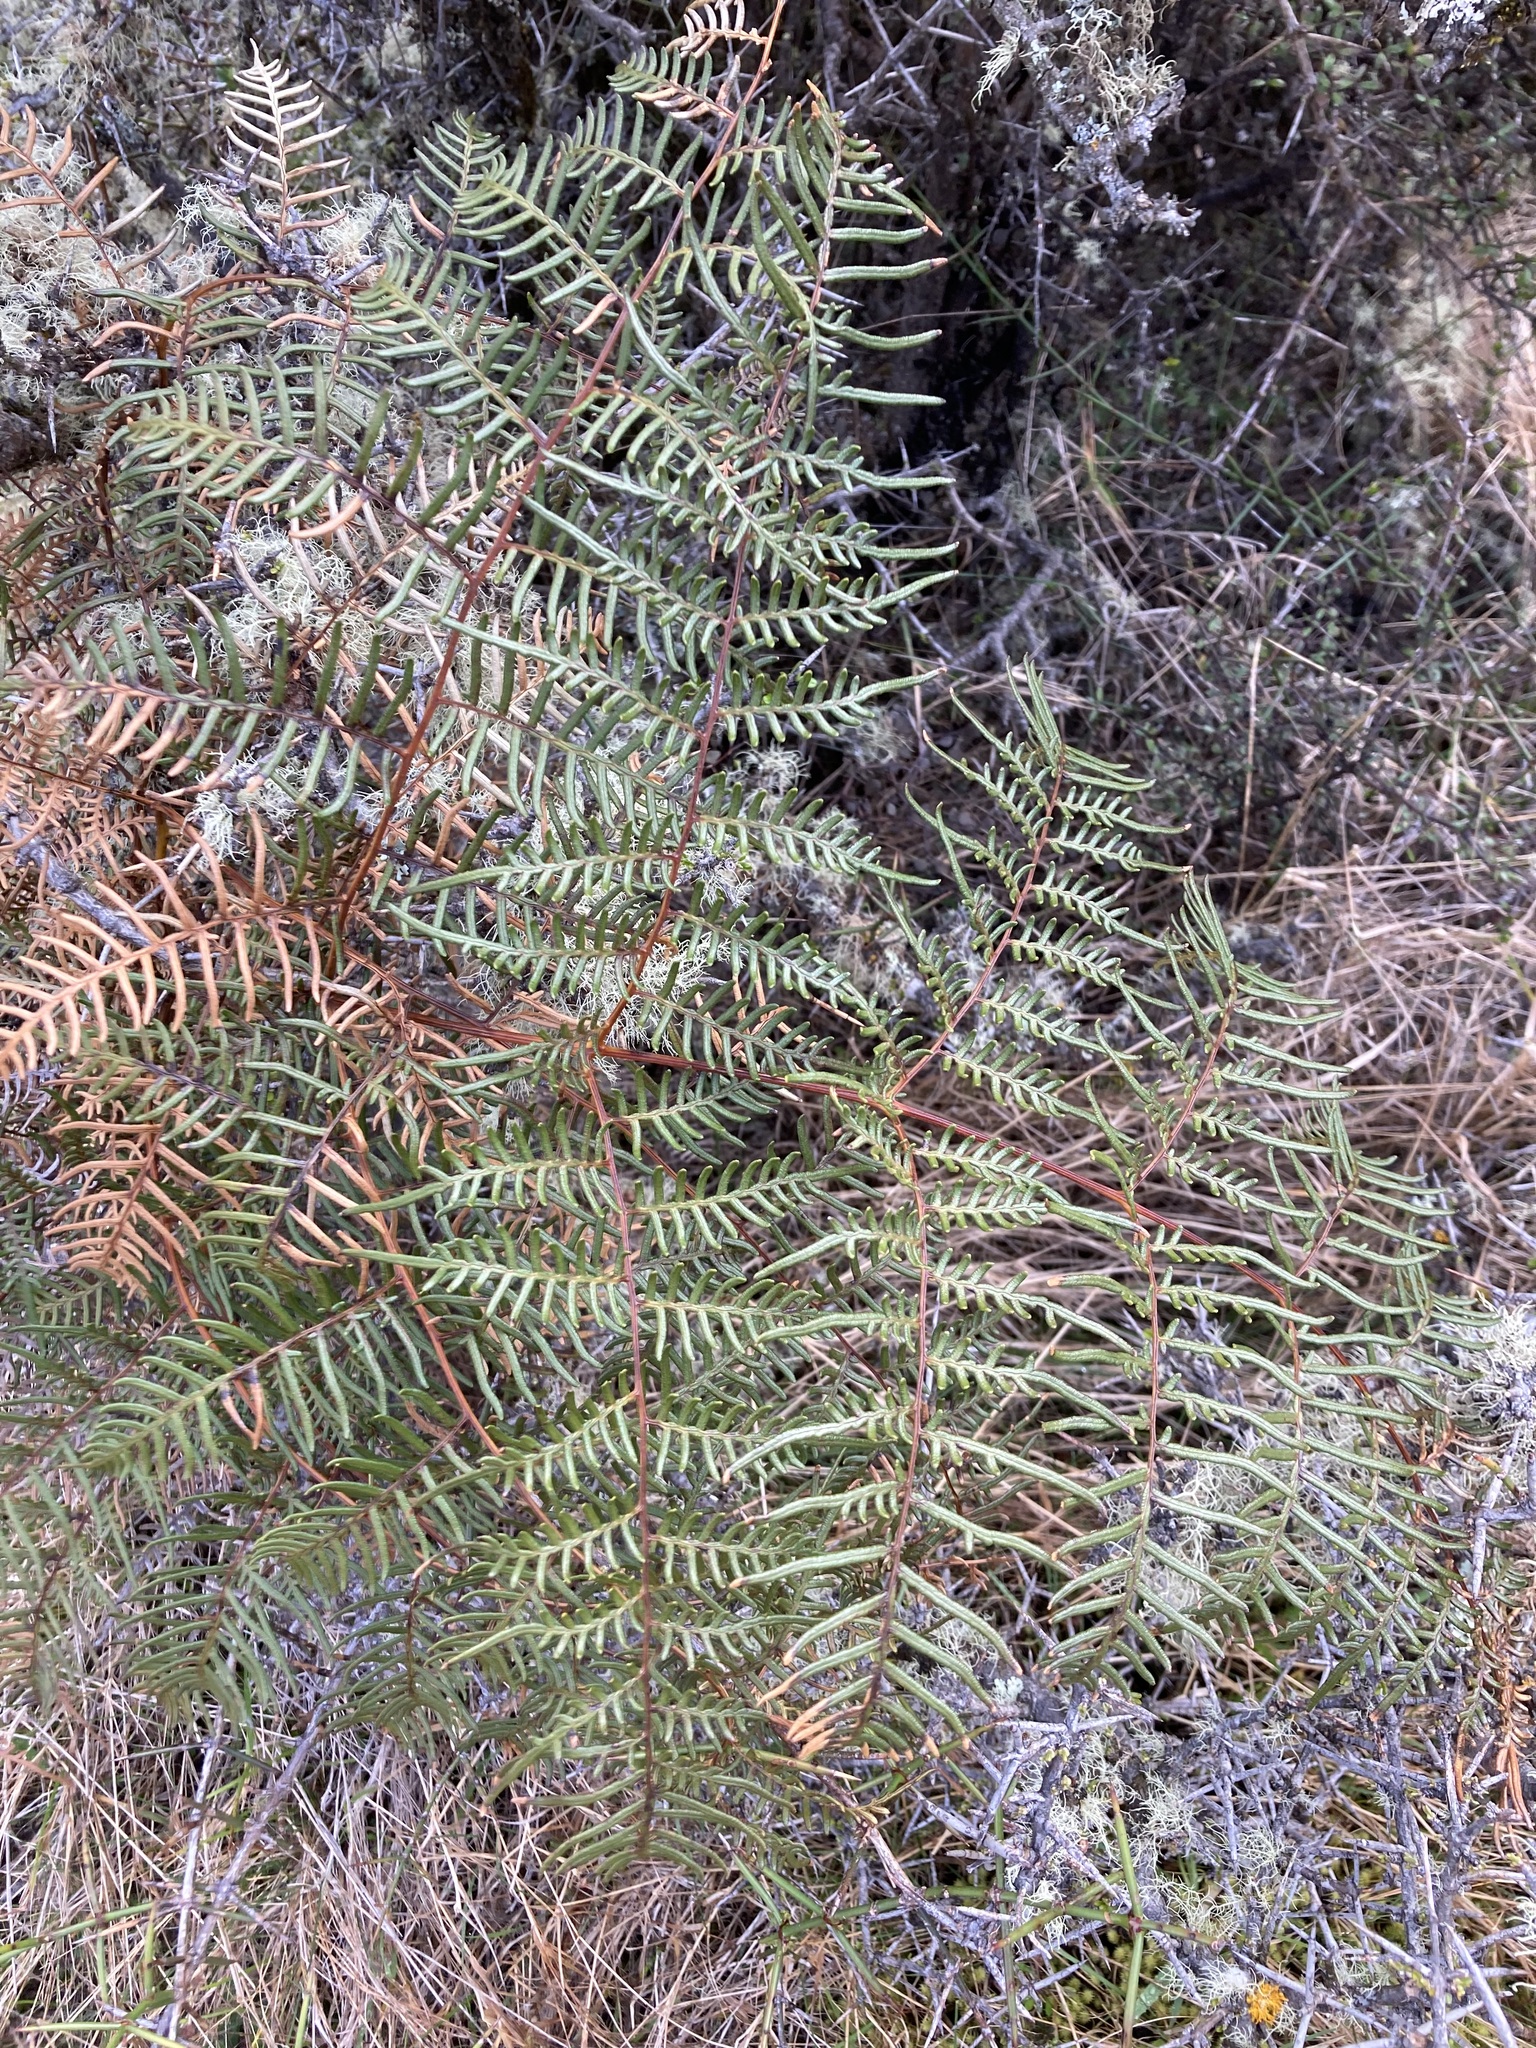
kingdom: Plantae
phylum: Tracheophyta
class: Polypodiopsida
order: Polypodiales
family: Dennstaedtiaceae
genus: Pteridium
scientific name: Pteridium esculentum
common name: Bracken fern
